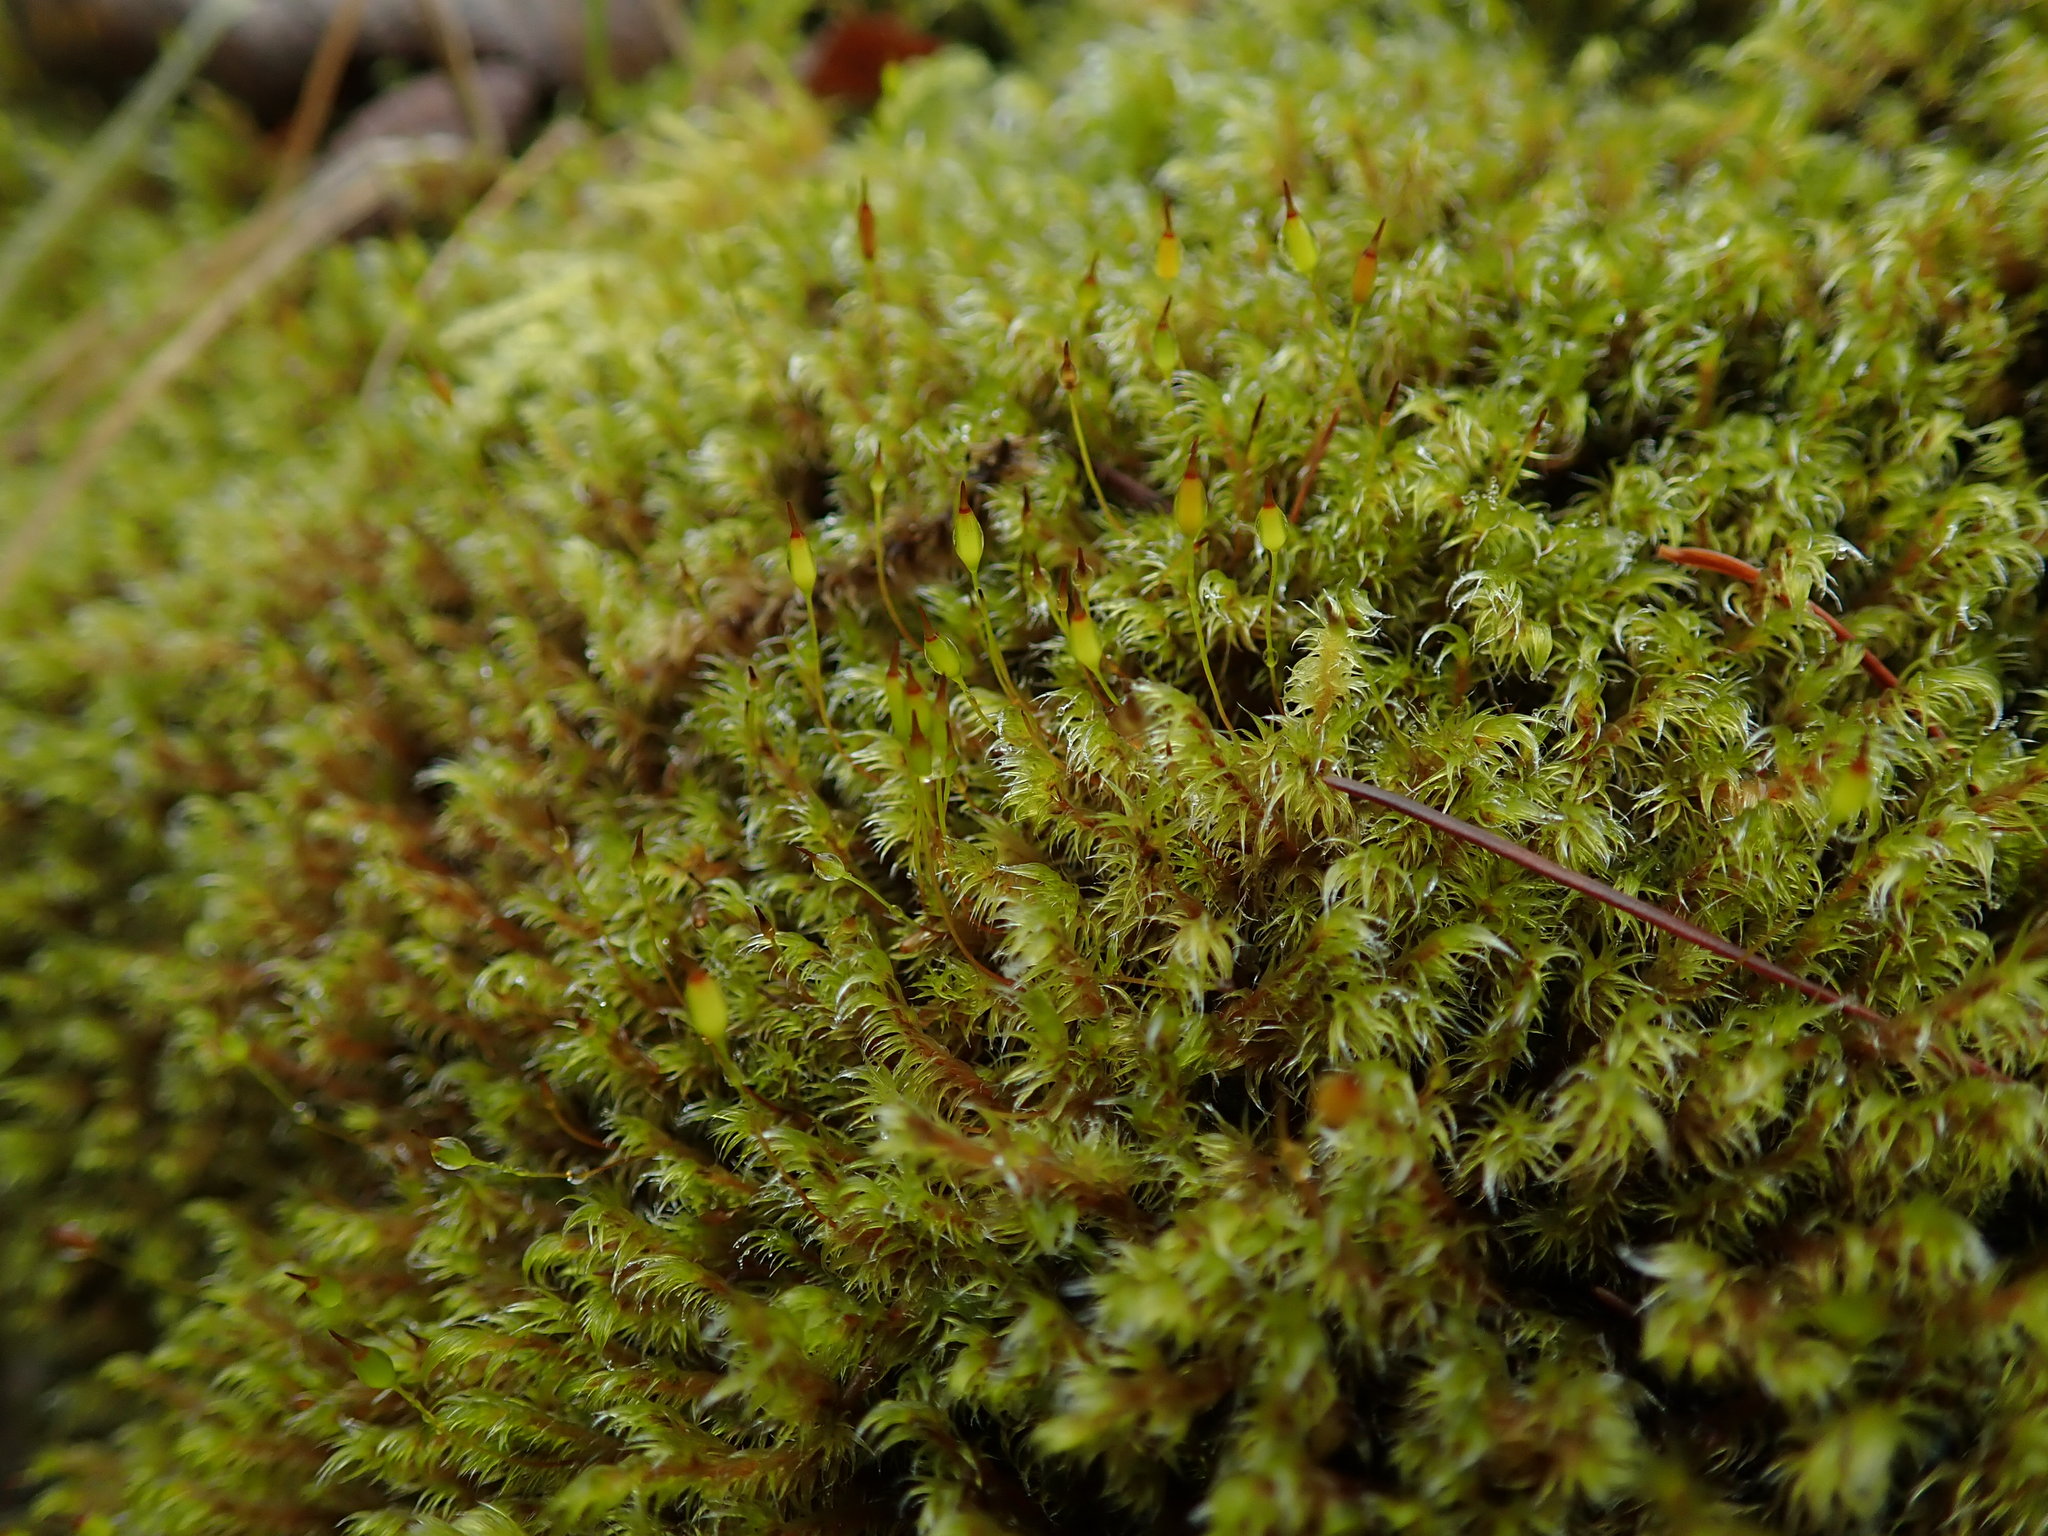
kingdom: Plantae
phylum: Bryophyta
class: Bryopsida
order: Grimmiales
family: Grimmiaceae
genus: Bucklandiella
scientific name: Bucklandiella heterosticha
